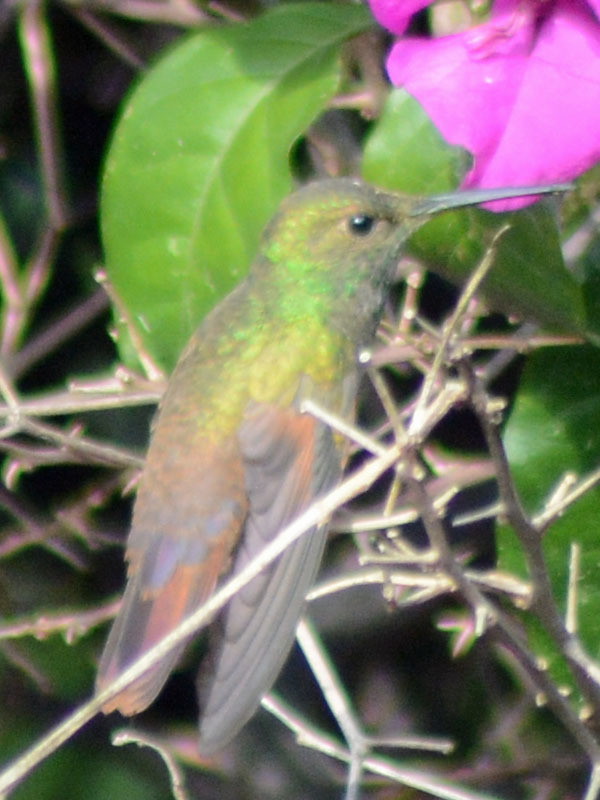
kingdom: Animalia
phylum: Chordata
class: Aves
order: Apodiformes
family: Trochilidae
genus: Saucerottia
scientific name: Saucerottia beryllina
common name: Berylline hummingbird
